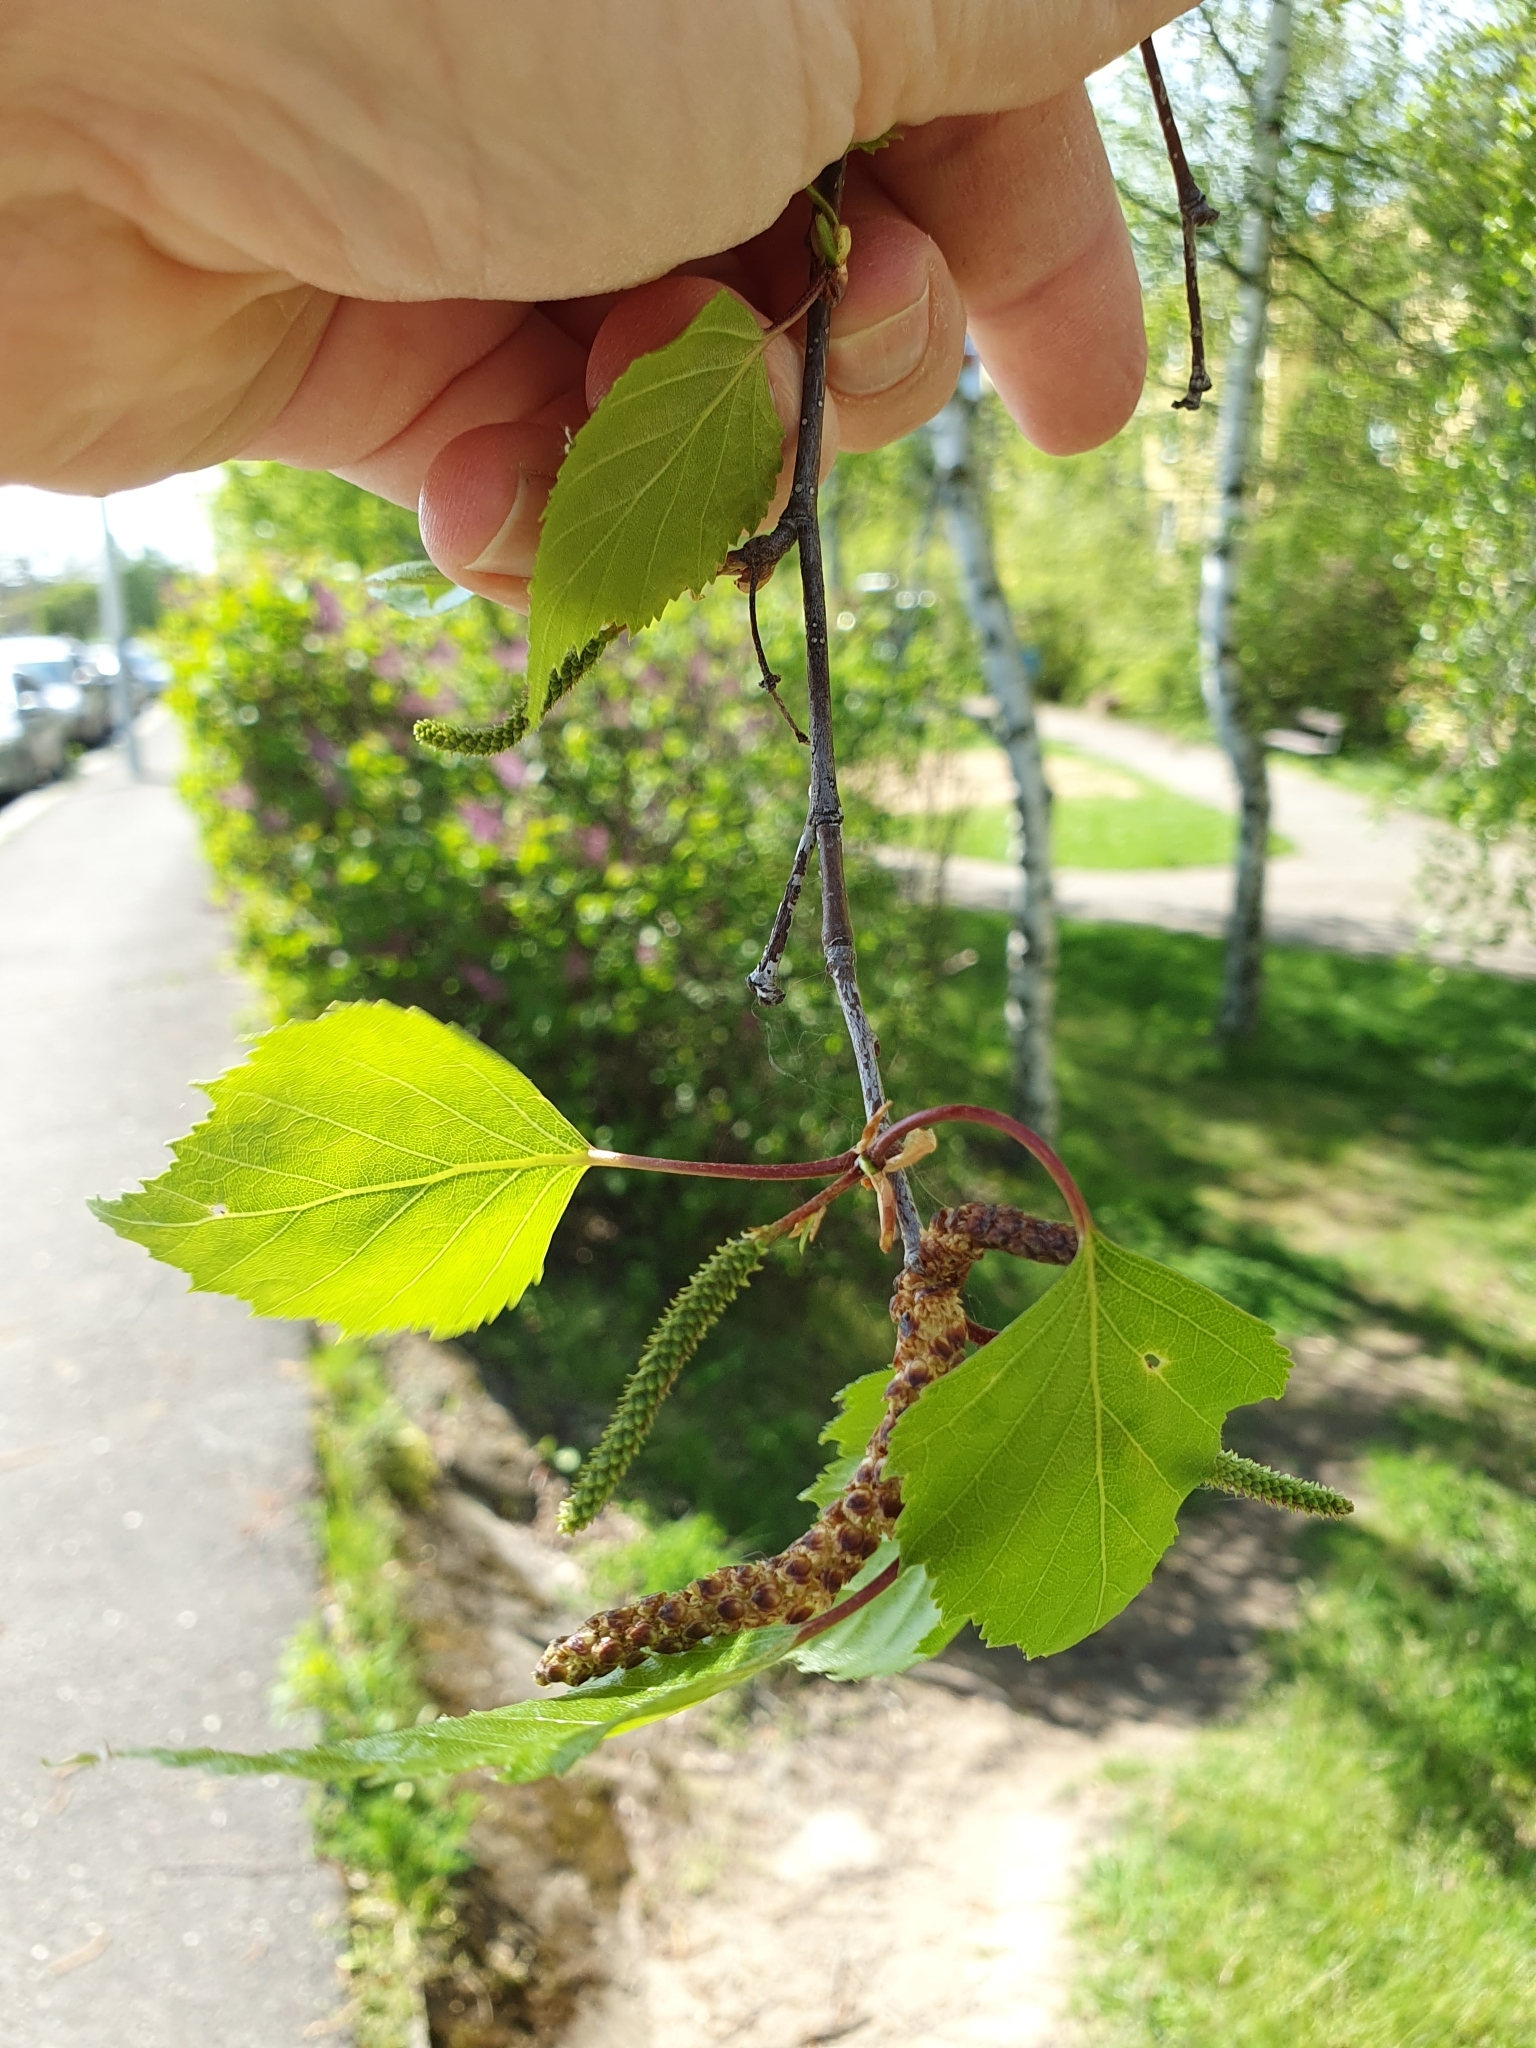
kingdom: Plantae
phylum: Tracheophyta
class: Magnoliopsida
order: Fagales
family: Betulaceae
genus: Betula
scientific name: Betula pendula
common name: Silver birch
